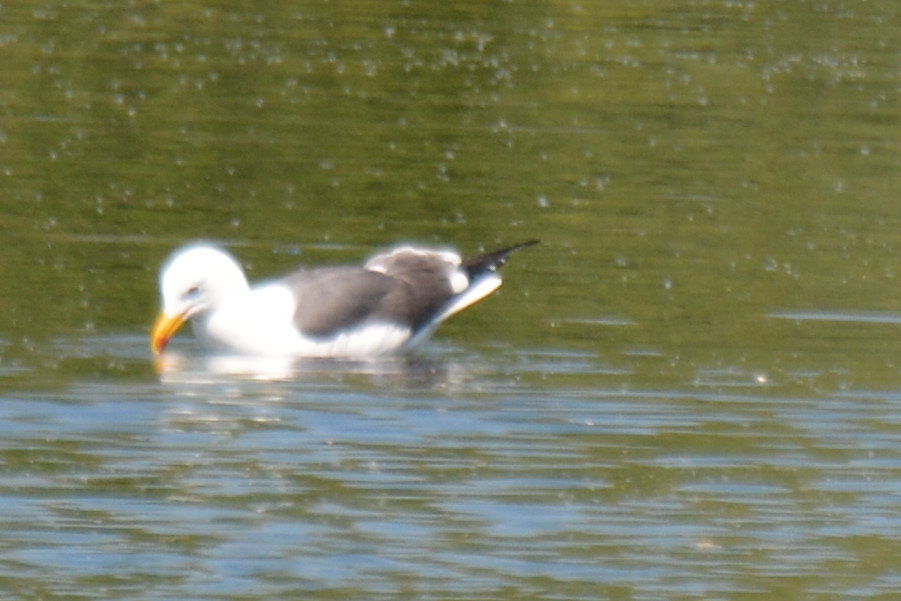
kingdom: Animalia
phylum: Chordata
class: Aves
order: Charadriiformes
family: Laridae
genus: Larus
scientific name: Larus fuscus
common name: Lesser black-backed gull
